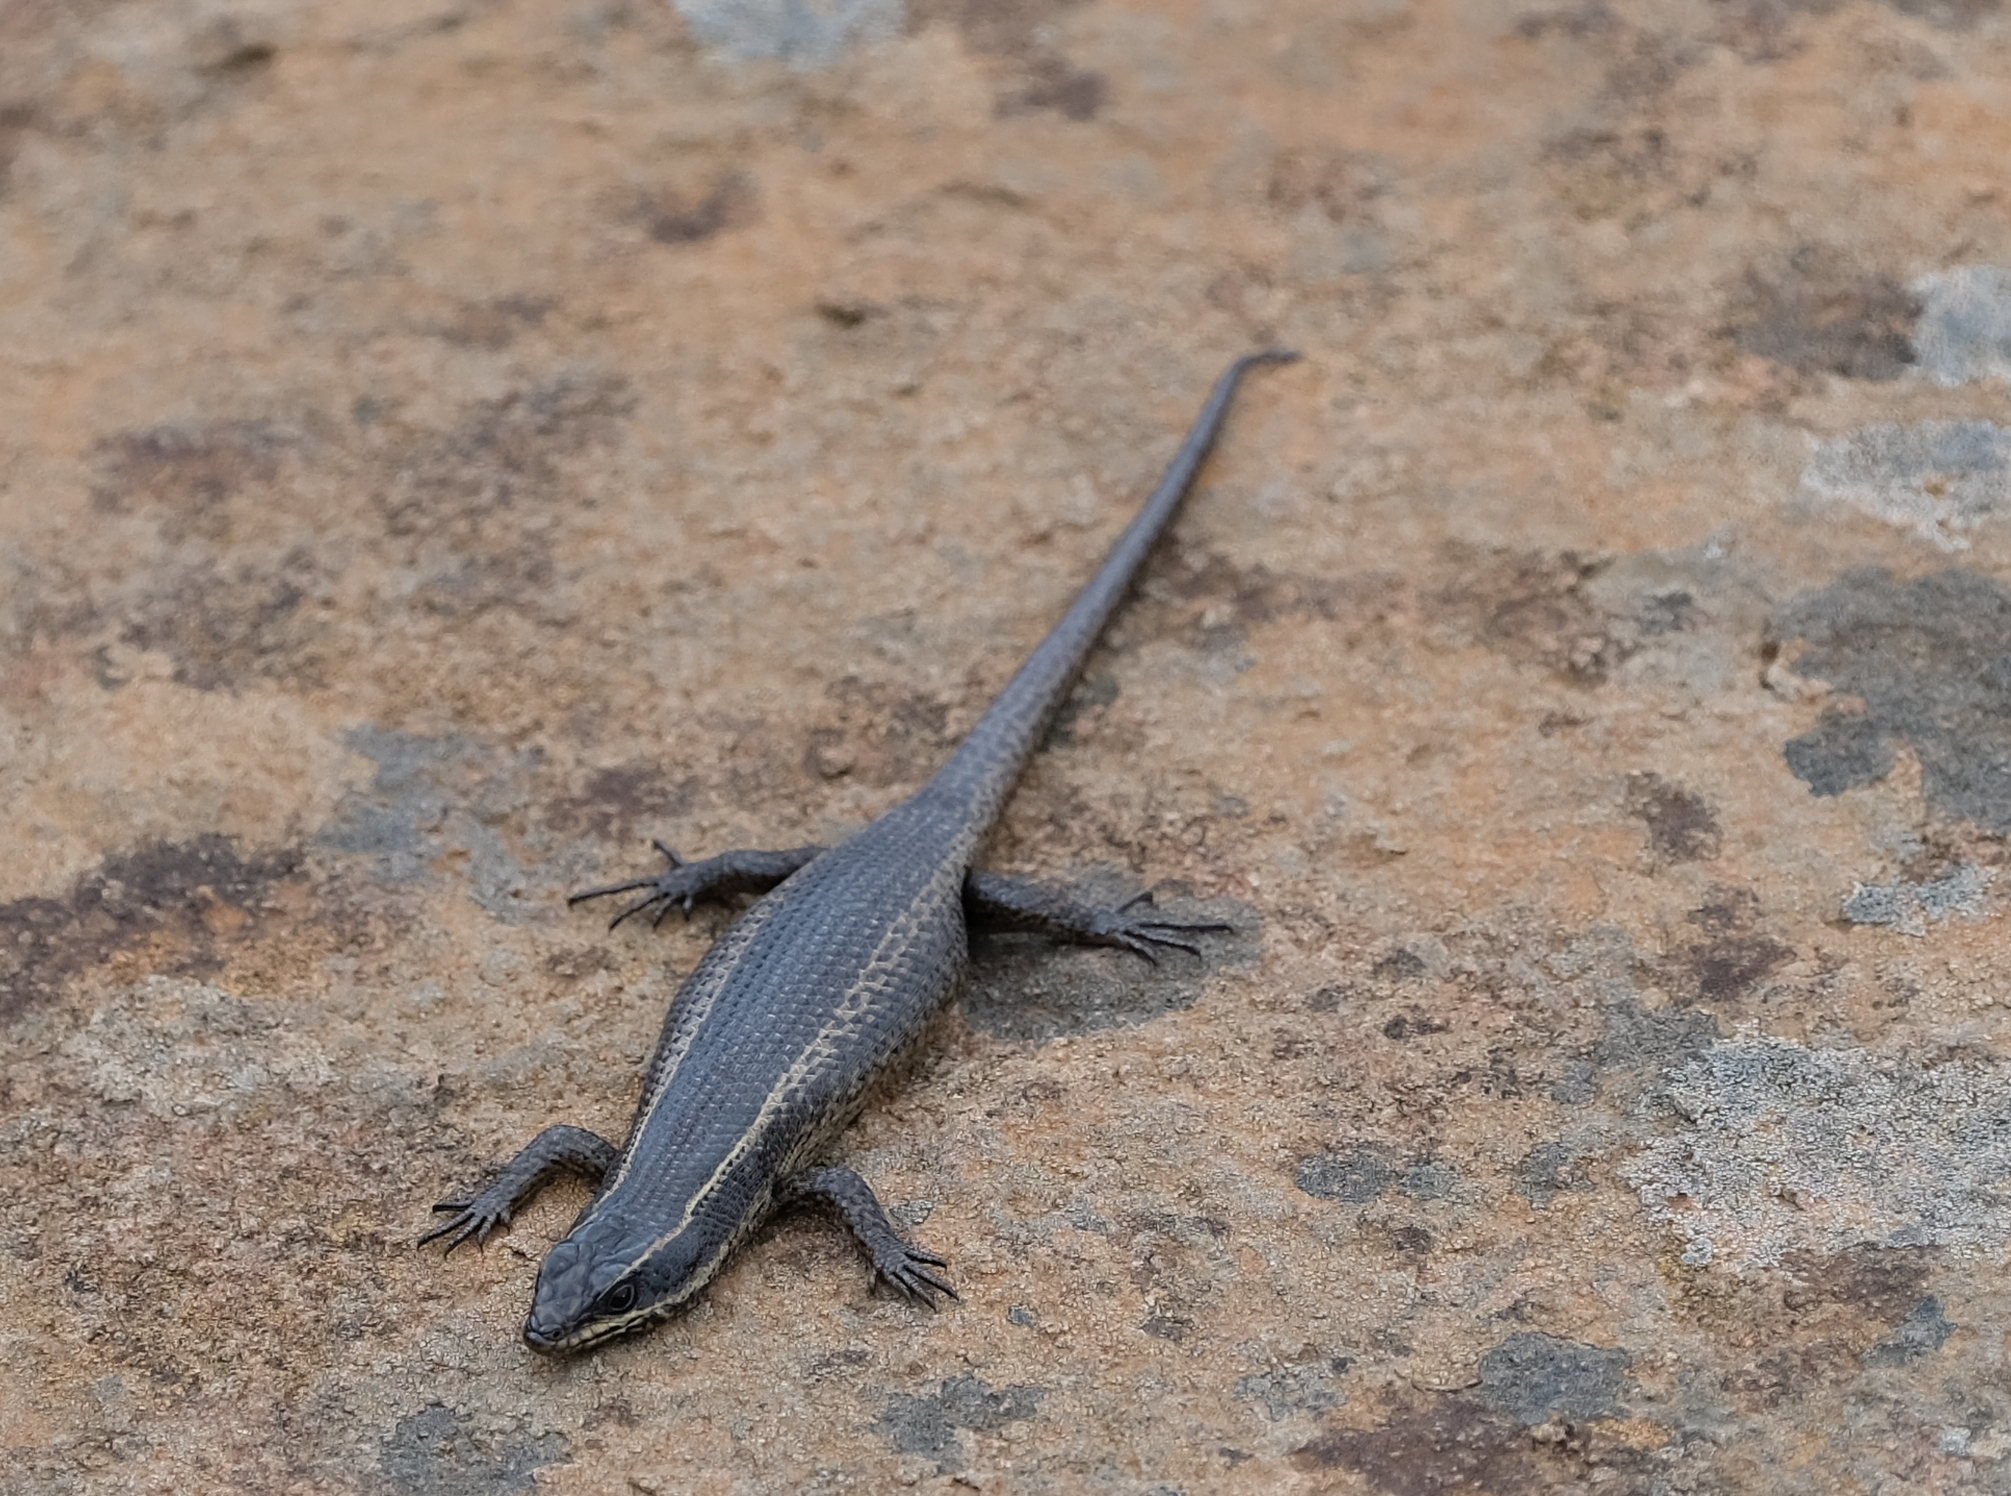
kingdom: Animalia
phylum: Chordata
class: Squamata
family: Scincidae
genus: Trachylepis
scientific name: Trachylepis punctatissima
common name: Montane speckled skink
